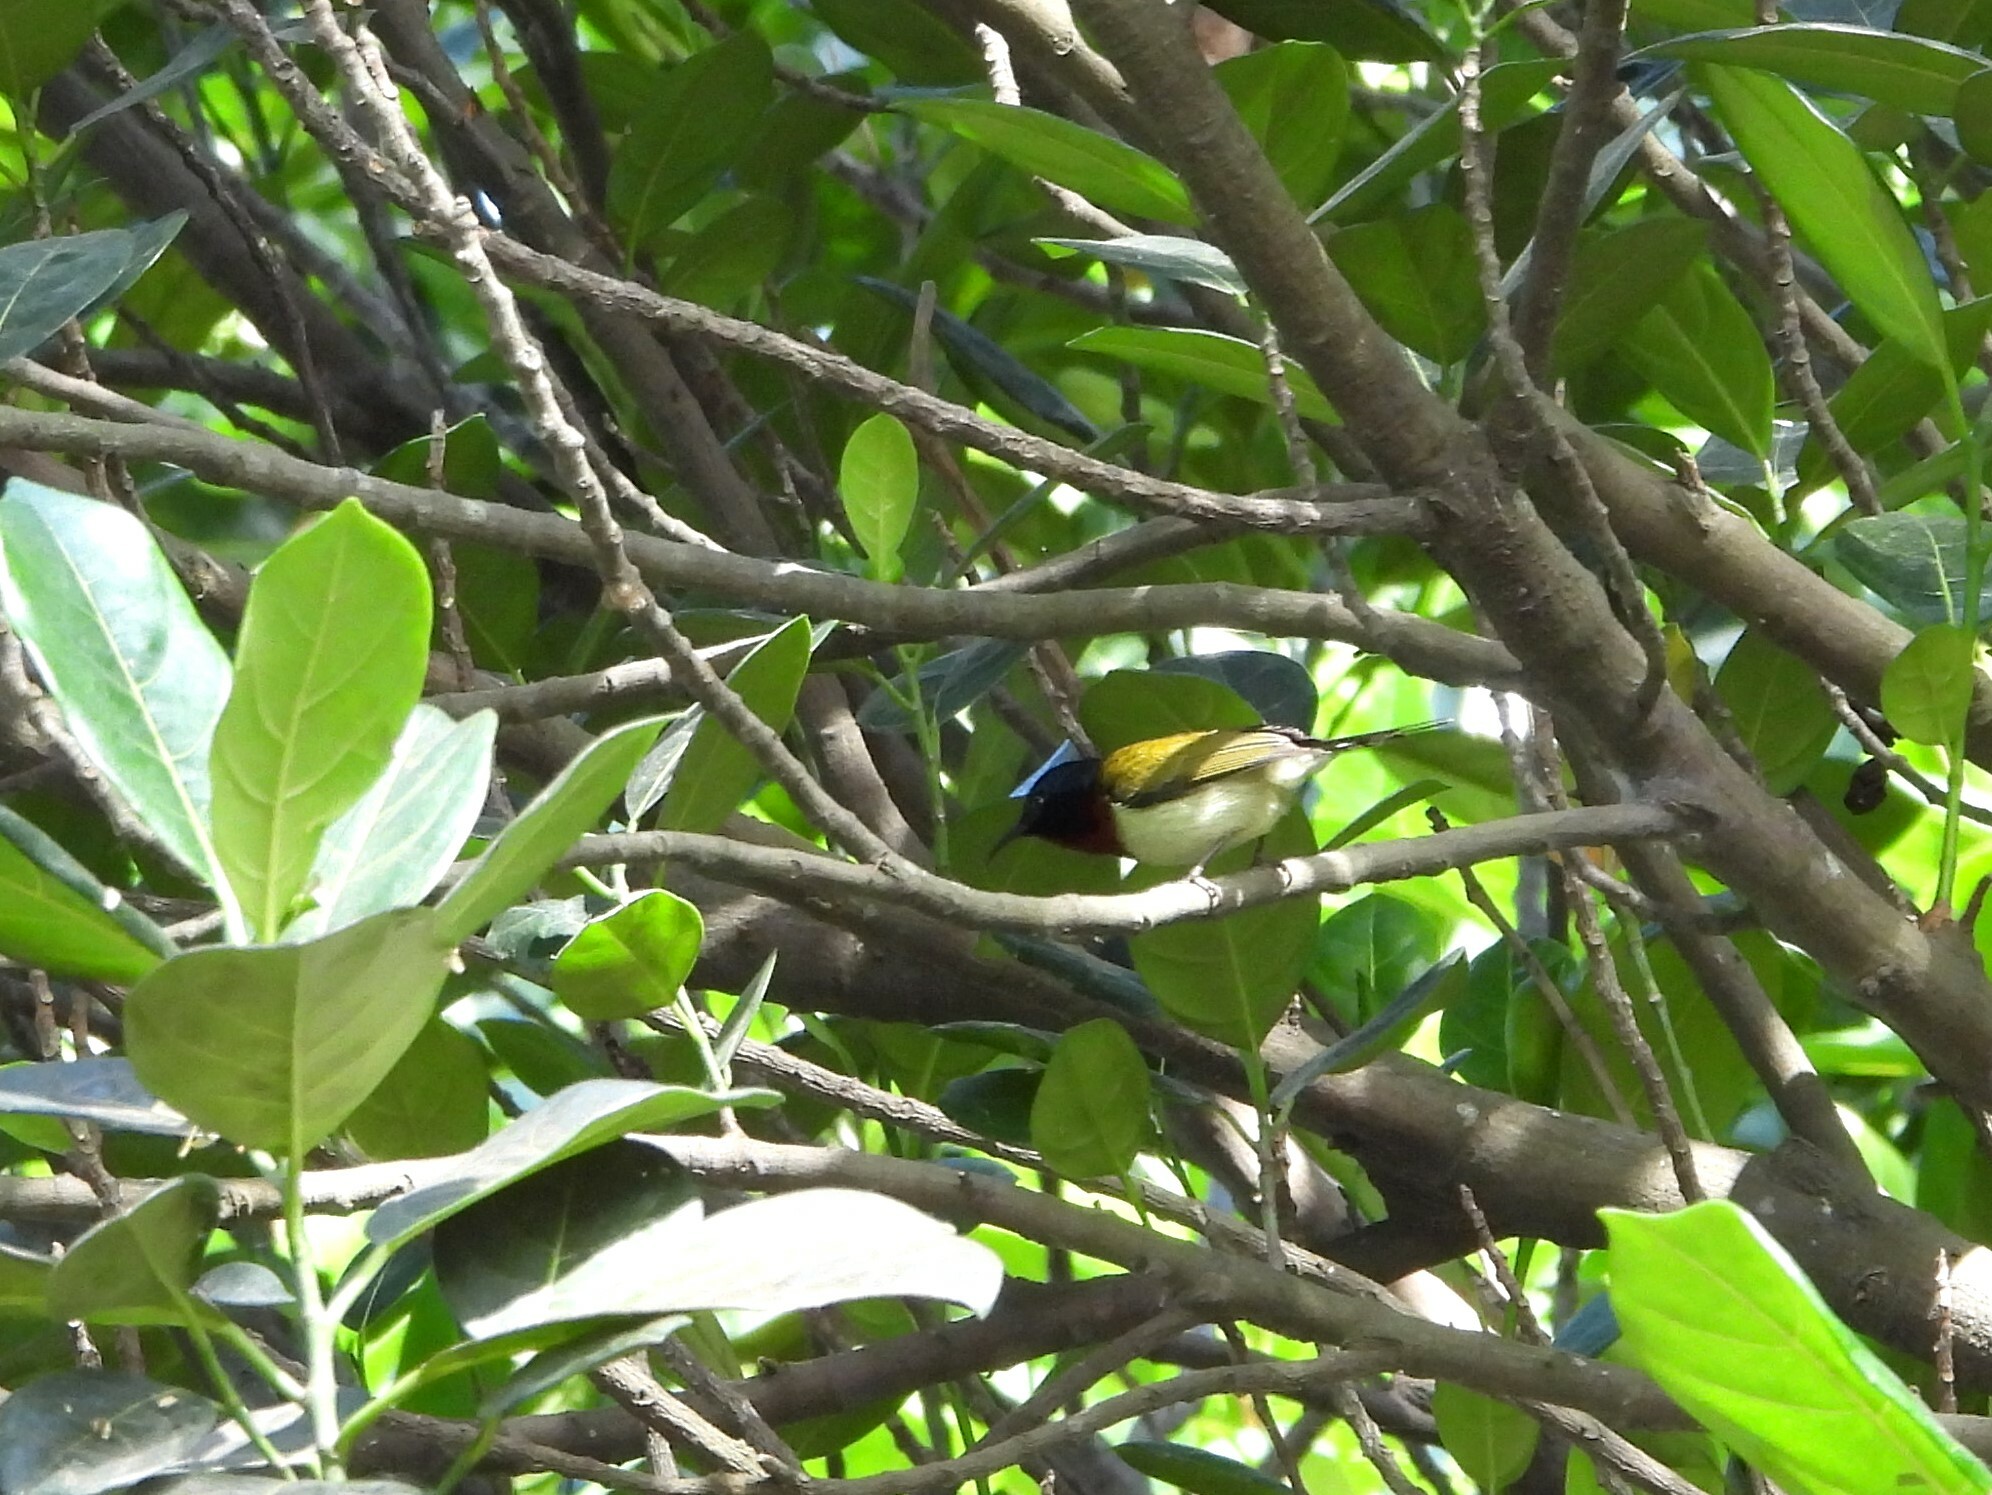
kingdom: Animalia
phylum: Chordata
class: Aves
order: Passeriformes
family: Nectariniidae
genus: Aethopyga
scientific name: Aethopyga christinae
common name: Fork-tailed sunbird
